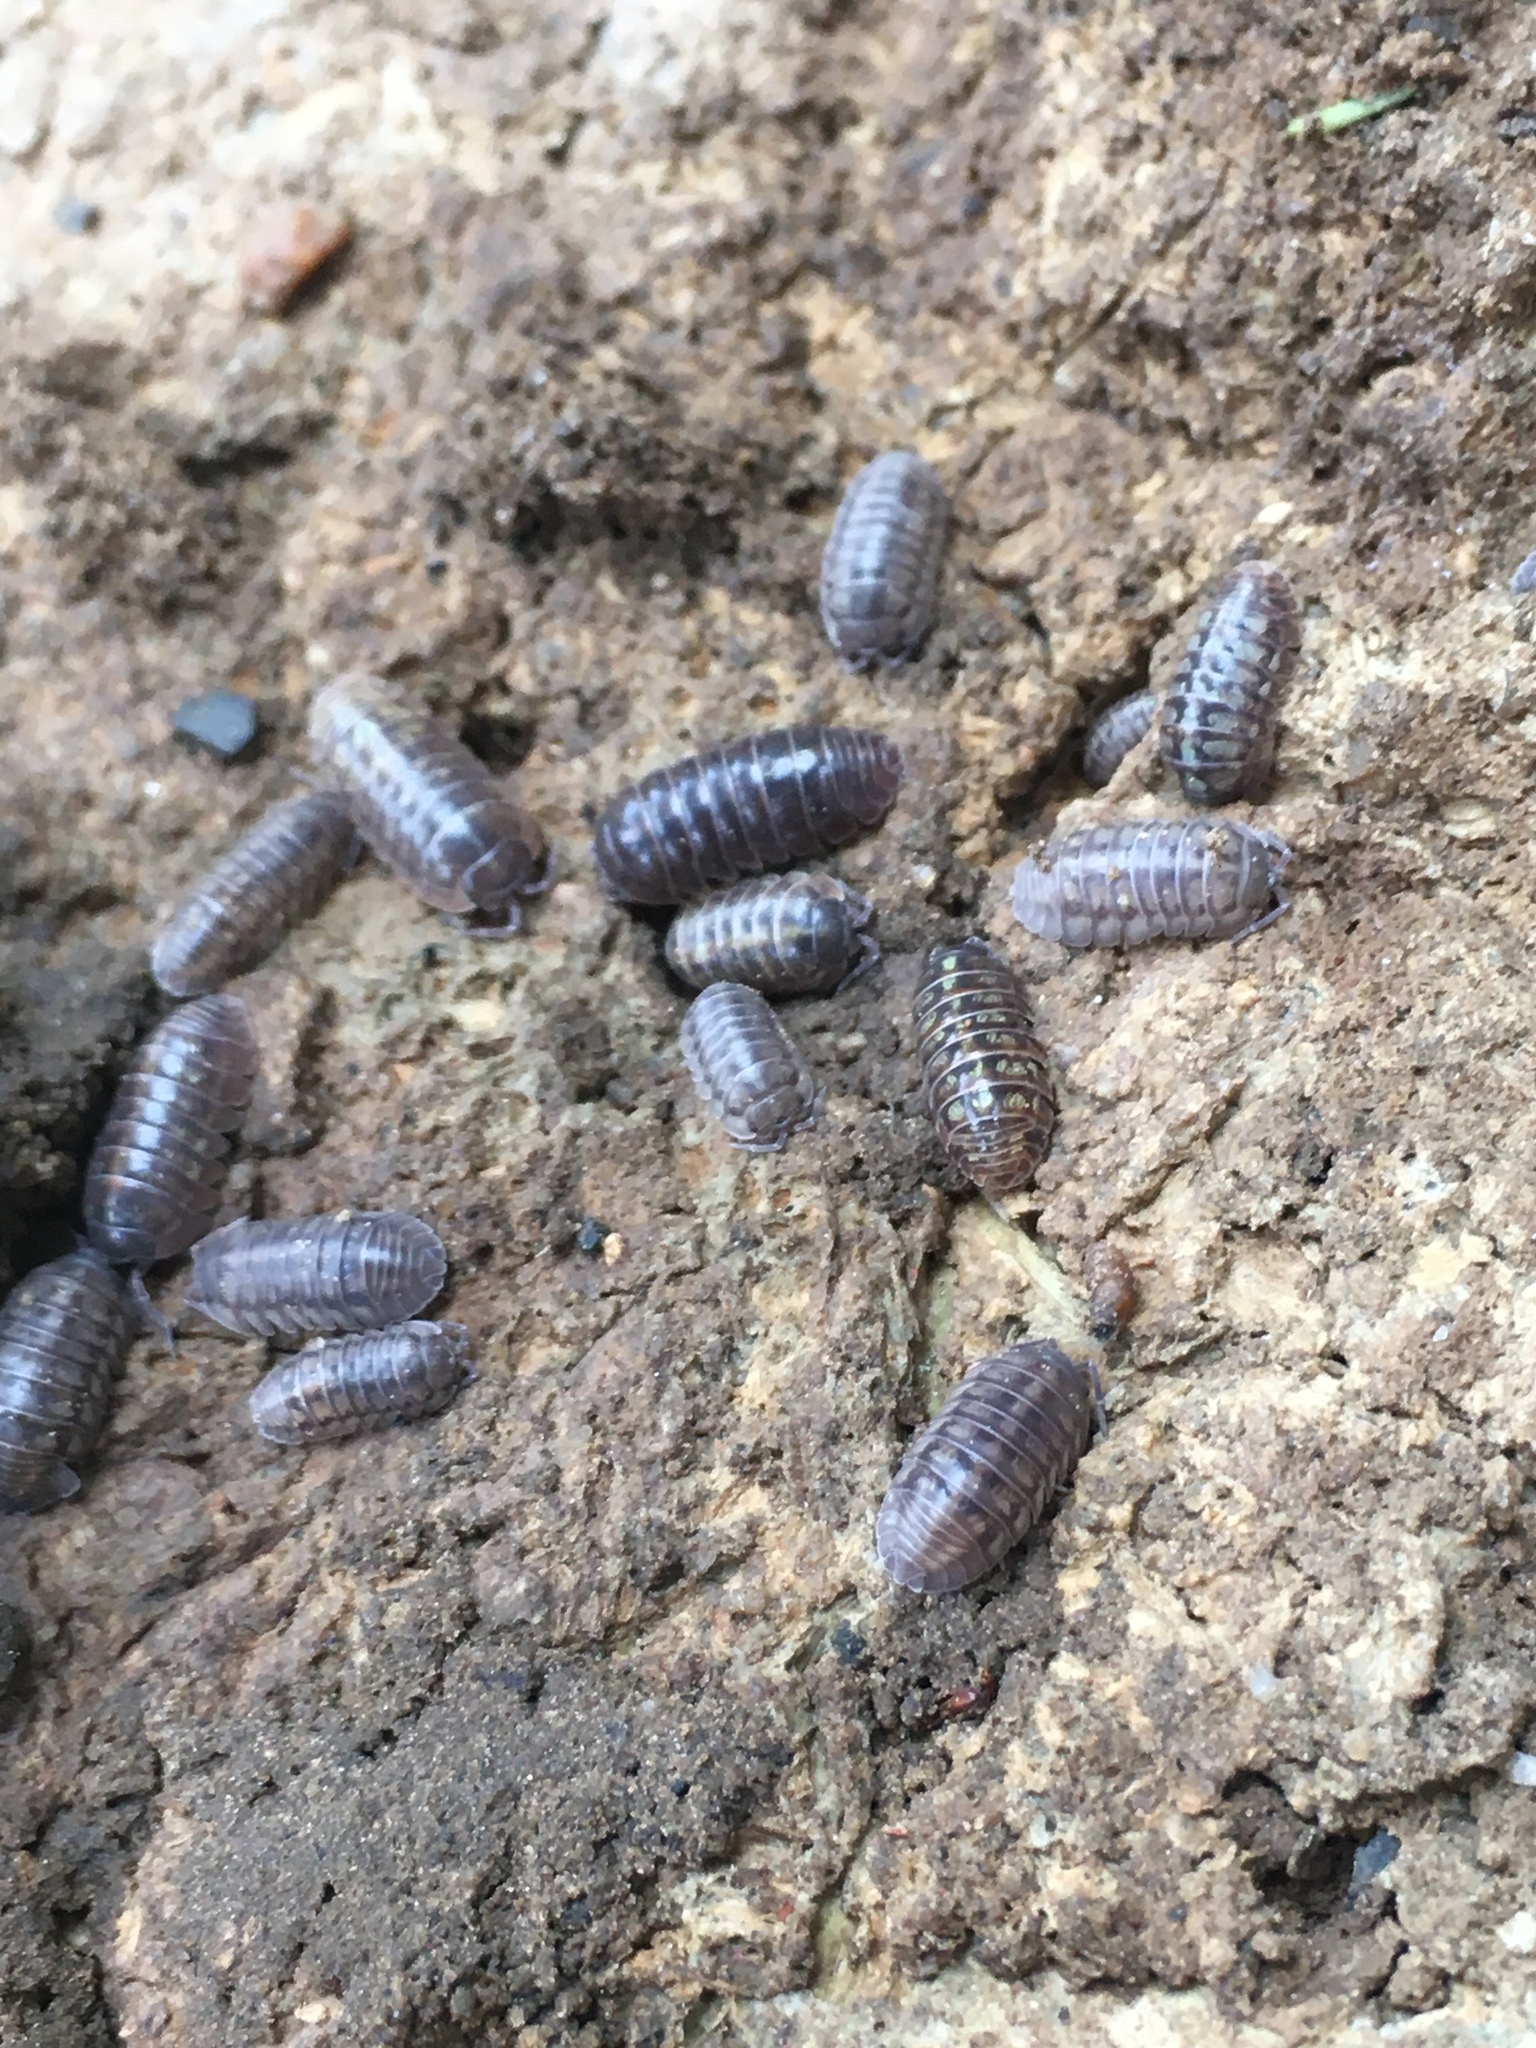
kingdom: Animalia
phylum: Arthropoda
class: Malacostraca
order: Isopoda
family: Armadillidiidae
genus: Armadillidium
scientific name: Armadillidium vulgare
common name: Common pill woodlouse
